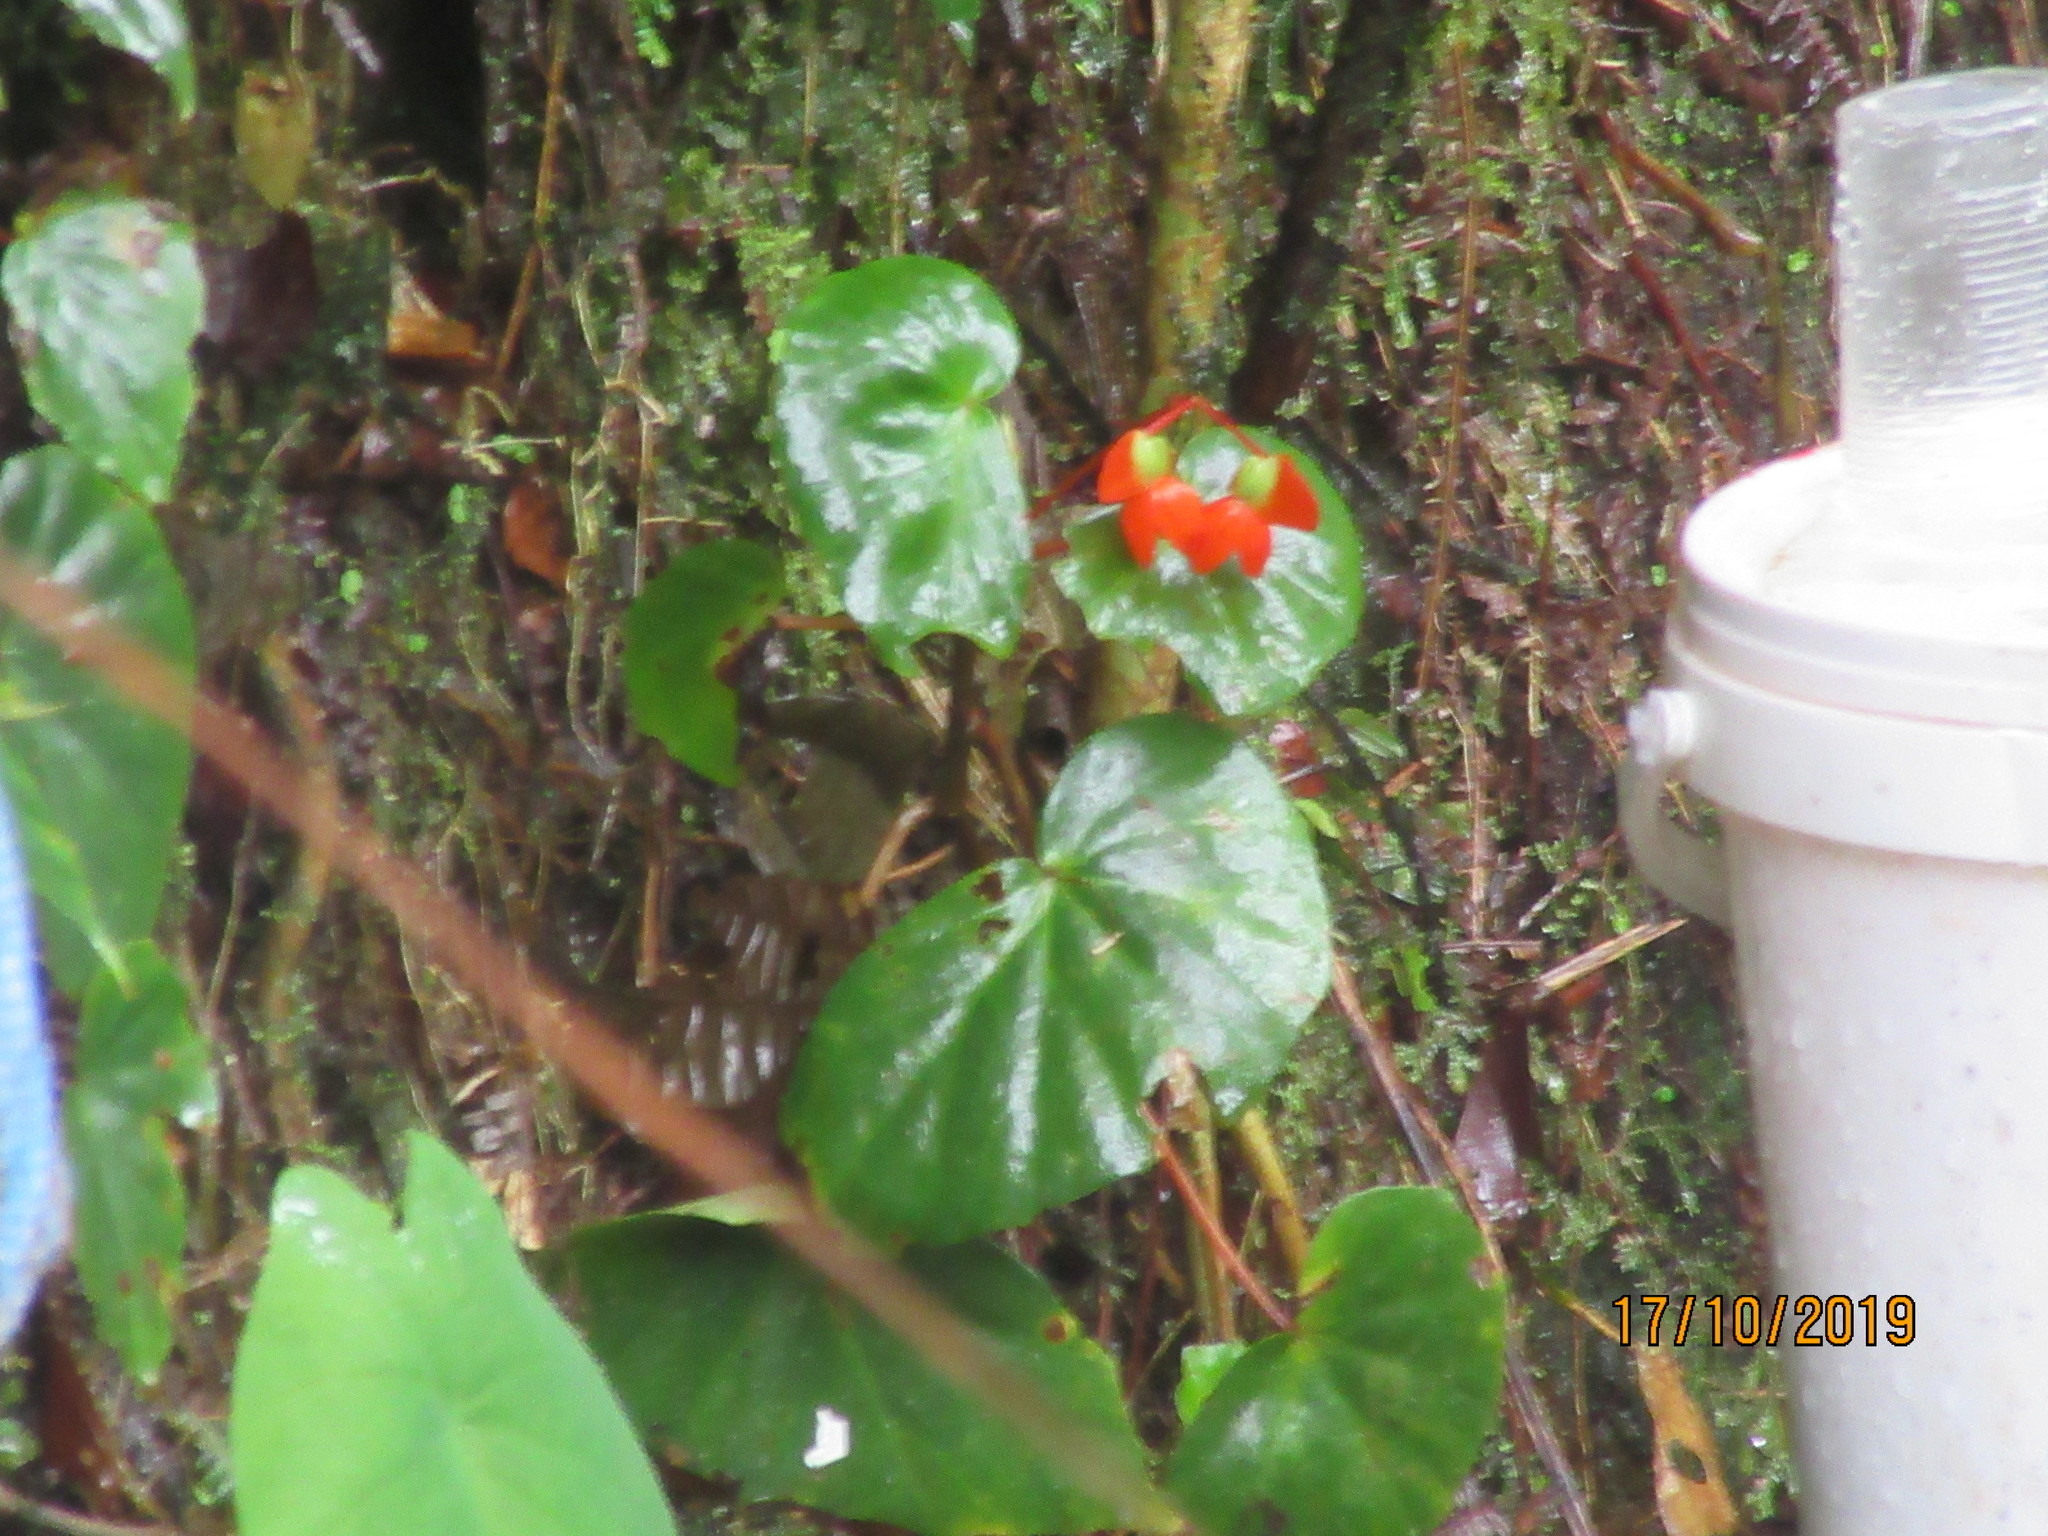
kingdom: Plantae
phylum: Tracheophyta
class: Magnoliopsida
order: Cucurbitales
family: Begoniaceae
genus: Begonia
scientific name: Begonia stenotepala
